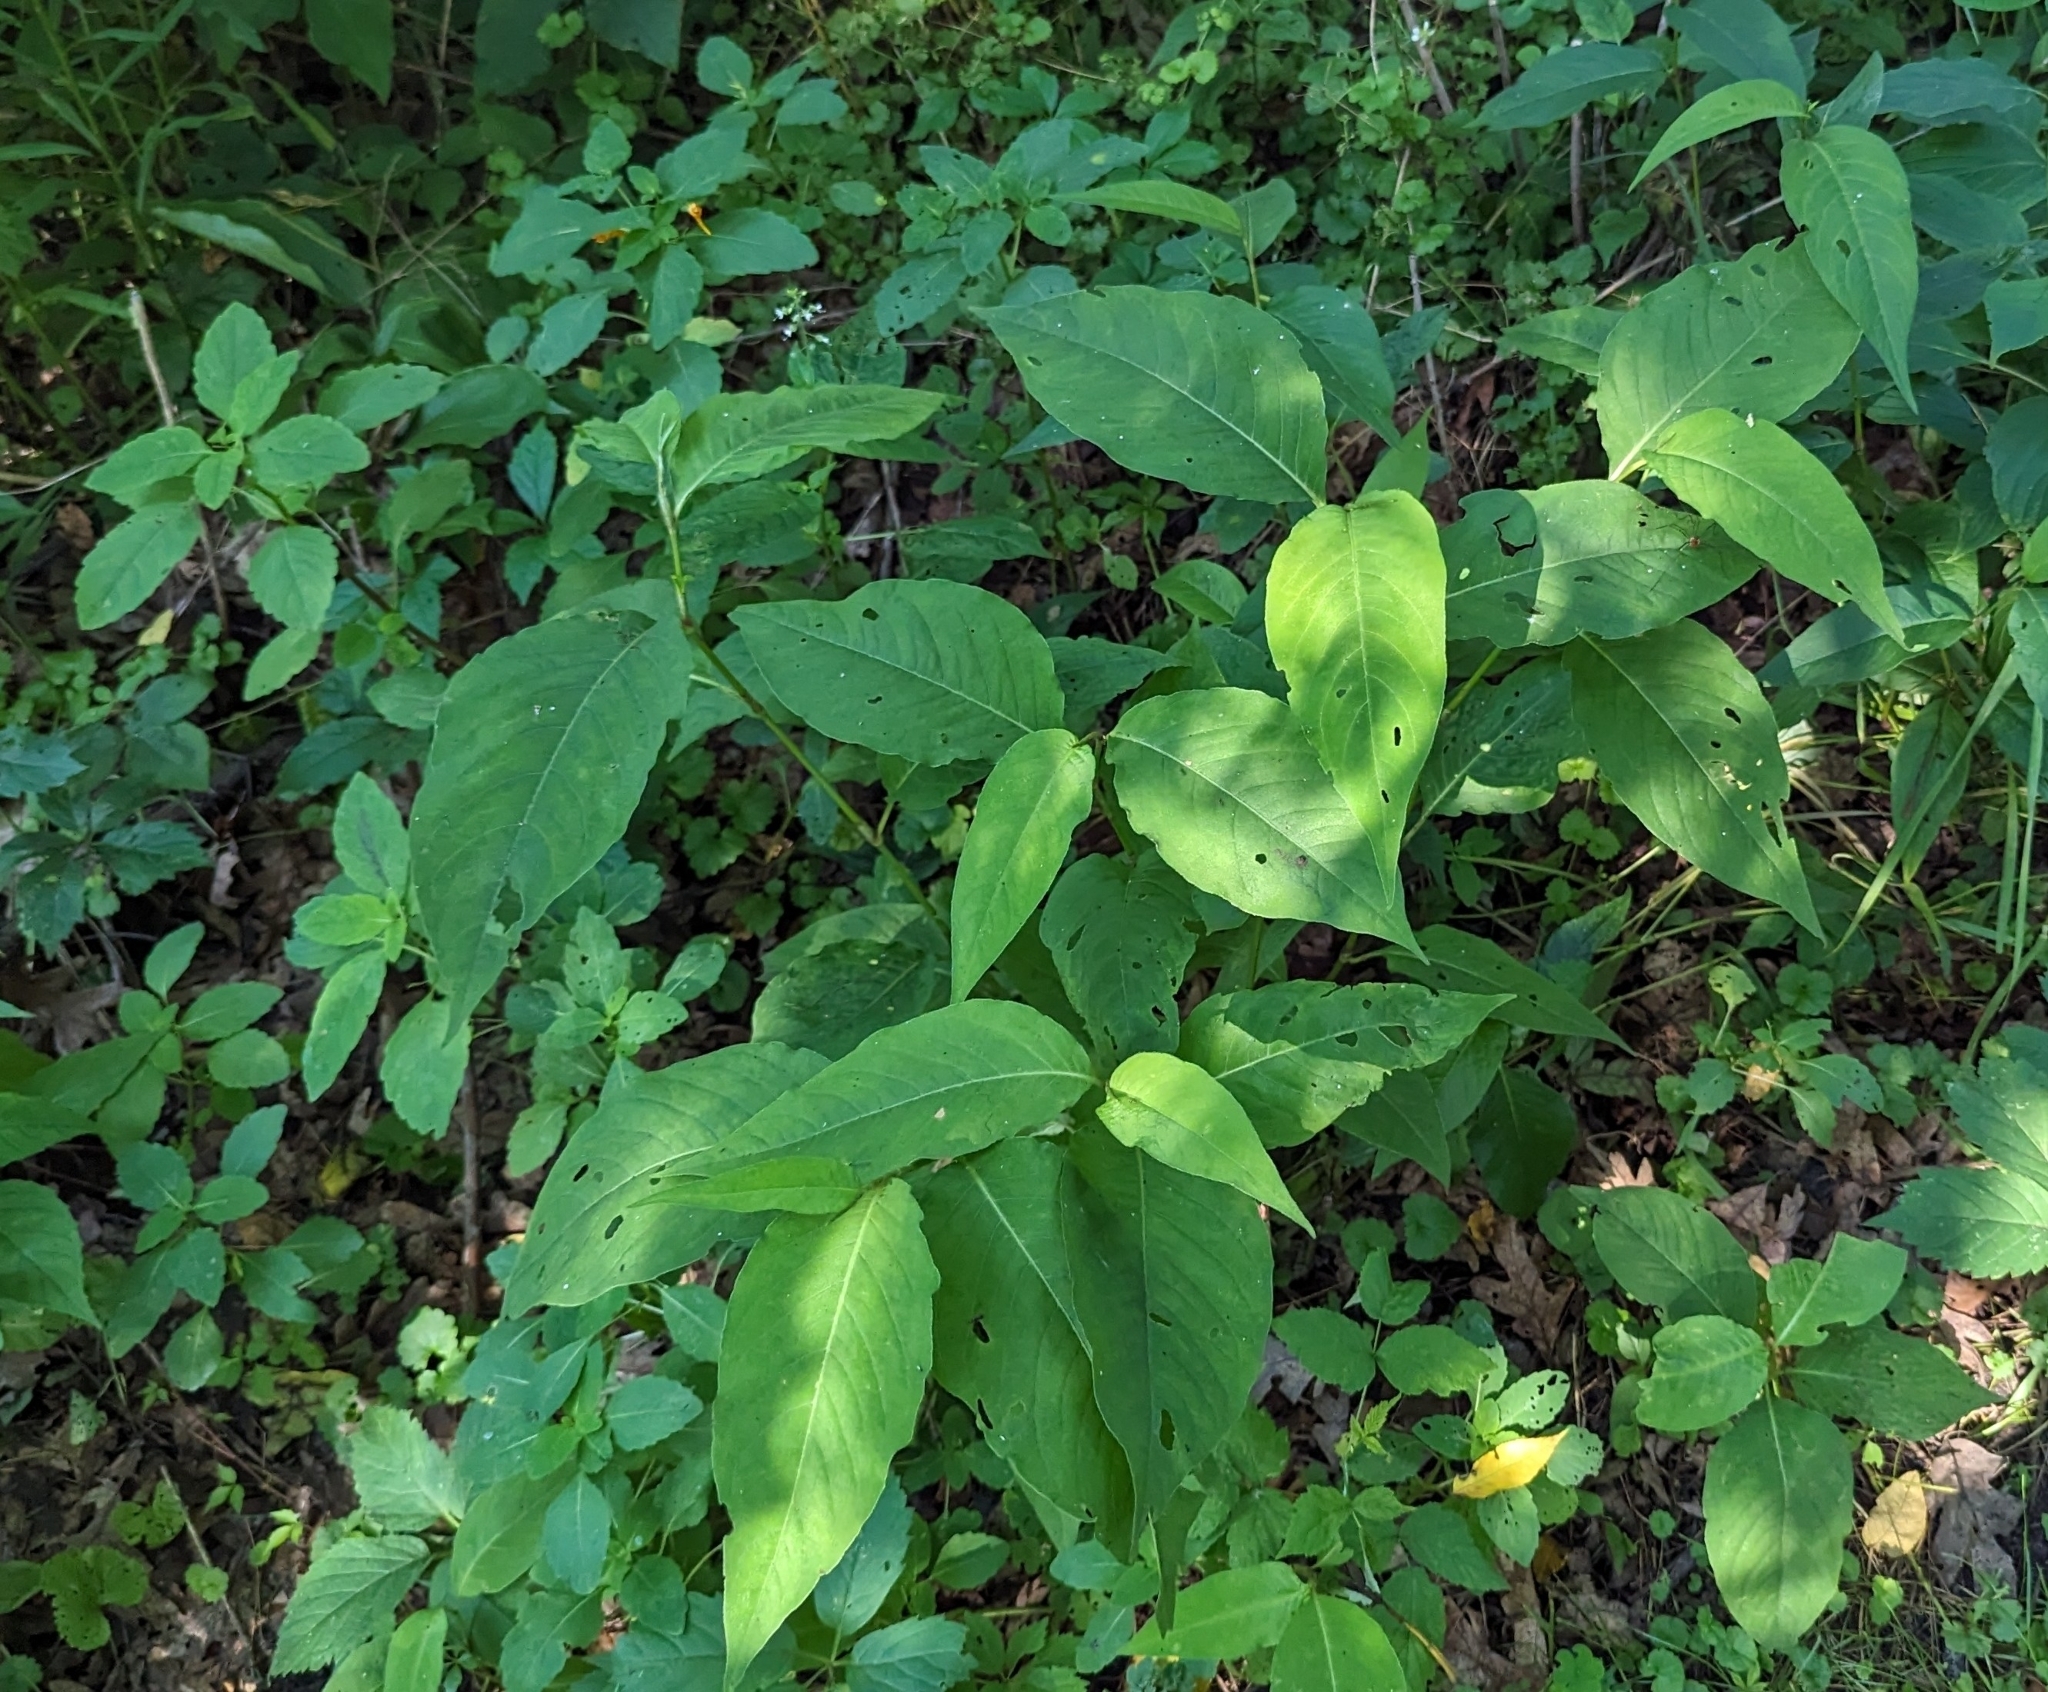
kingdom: Plantae
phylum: Tracheophyta
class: Magnoliopsida
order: Caryophyllales
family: Polygonaceae
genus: Persicaria
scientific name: Persicaria virginiana
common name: Jumpseed
